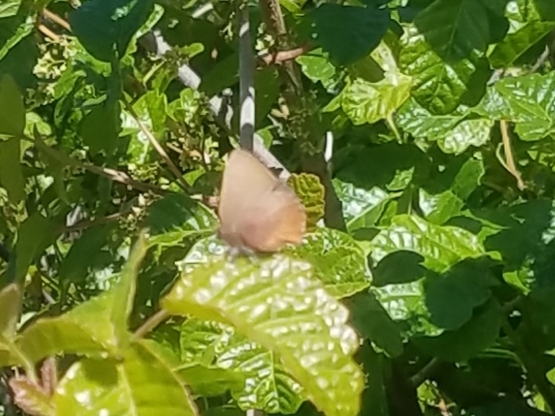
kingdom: Animalia
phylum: Arthropoda
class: Insecta
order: Lepidoptera
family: Lycaenidae
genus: Incisalia
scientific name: Incisalia irioides
